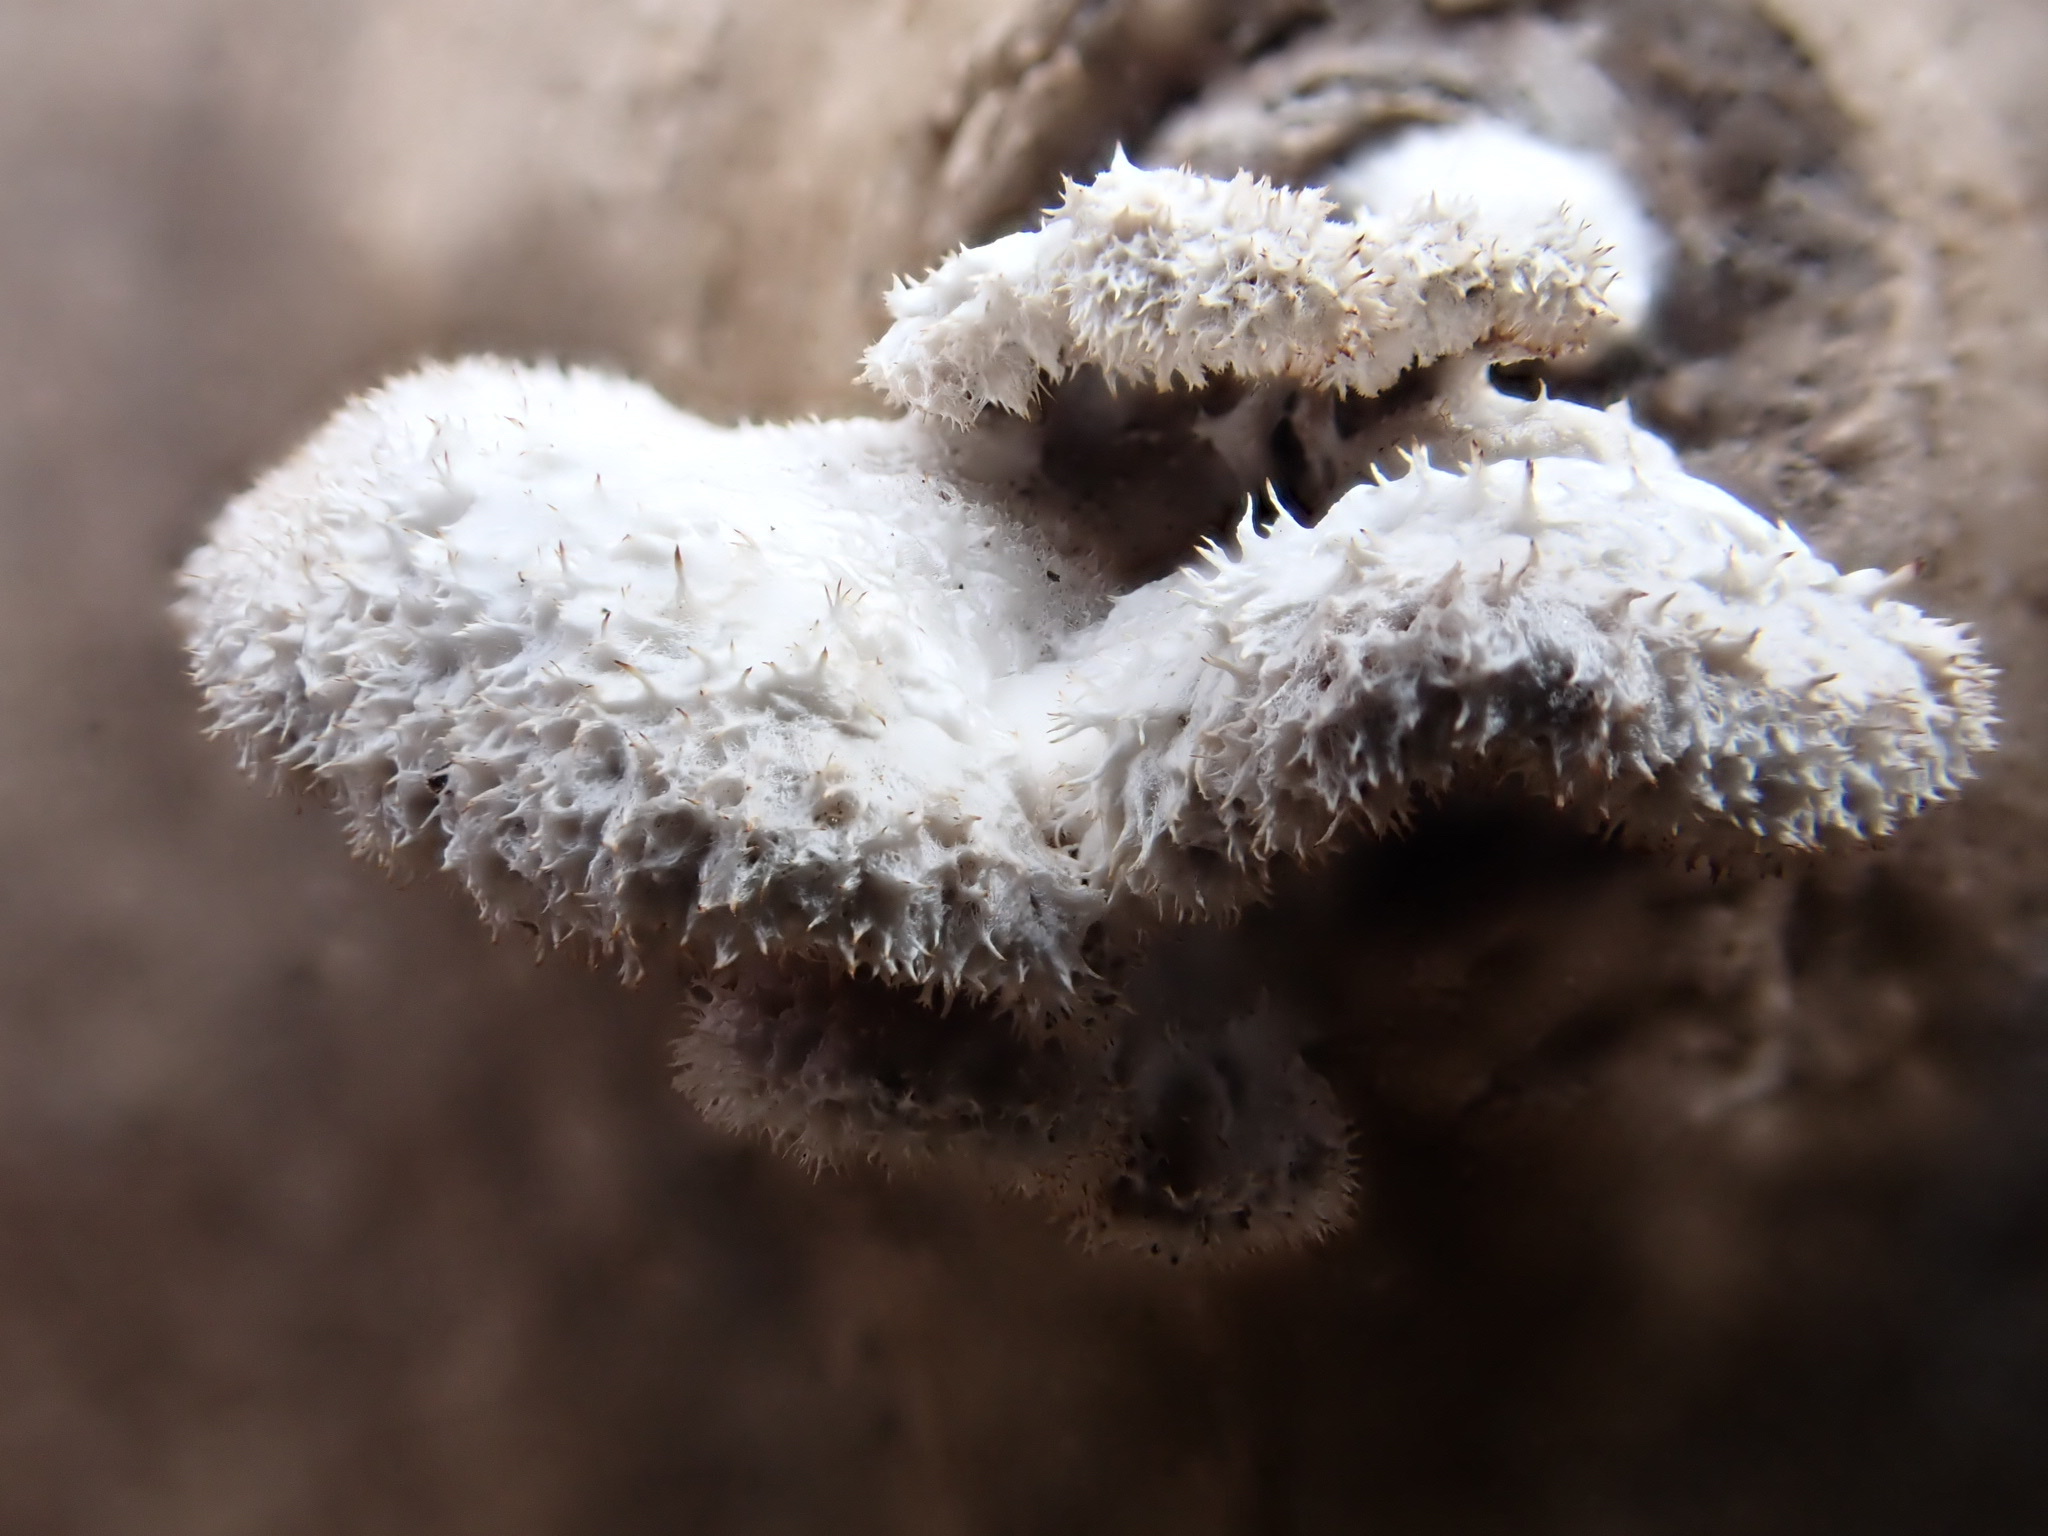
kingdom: Fungi
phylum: Basidiomycota
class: Agaricomycetes
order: Agaricales
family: Schizophyllaceae
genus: Schizophyllum
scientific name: Schizophyllum commune
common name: Common porecrust
